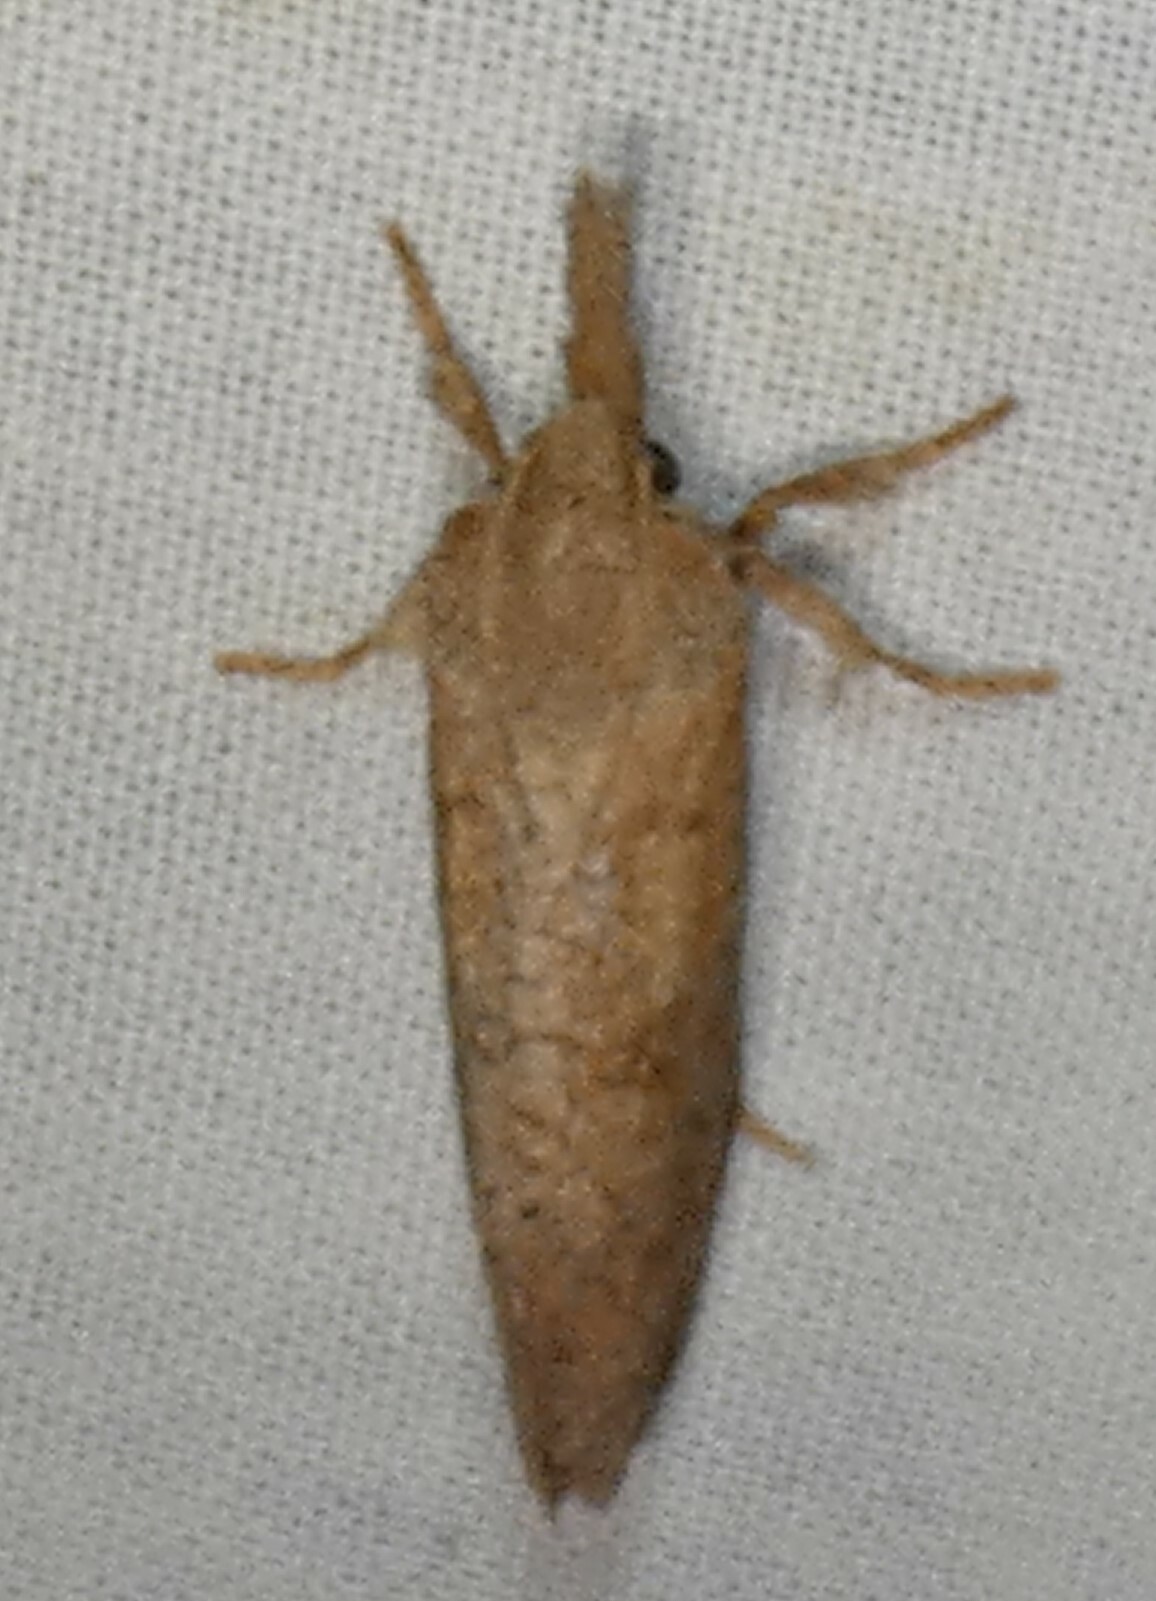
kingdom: Animalia
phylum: Arthropoda
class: Insecta
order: Lepidoptera
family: Tineidae
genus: Acrolophus
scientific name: Acrolophus plumifrontella
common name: Eastern grass tubeworm moth
